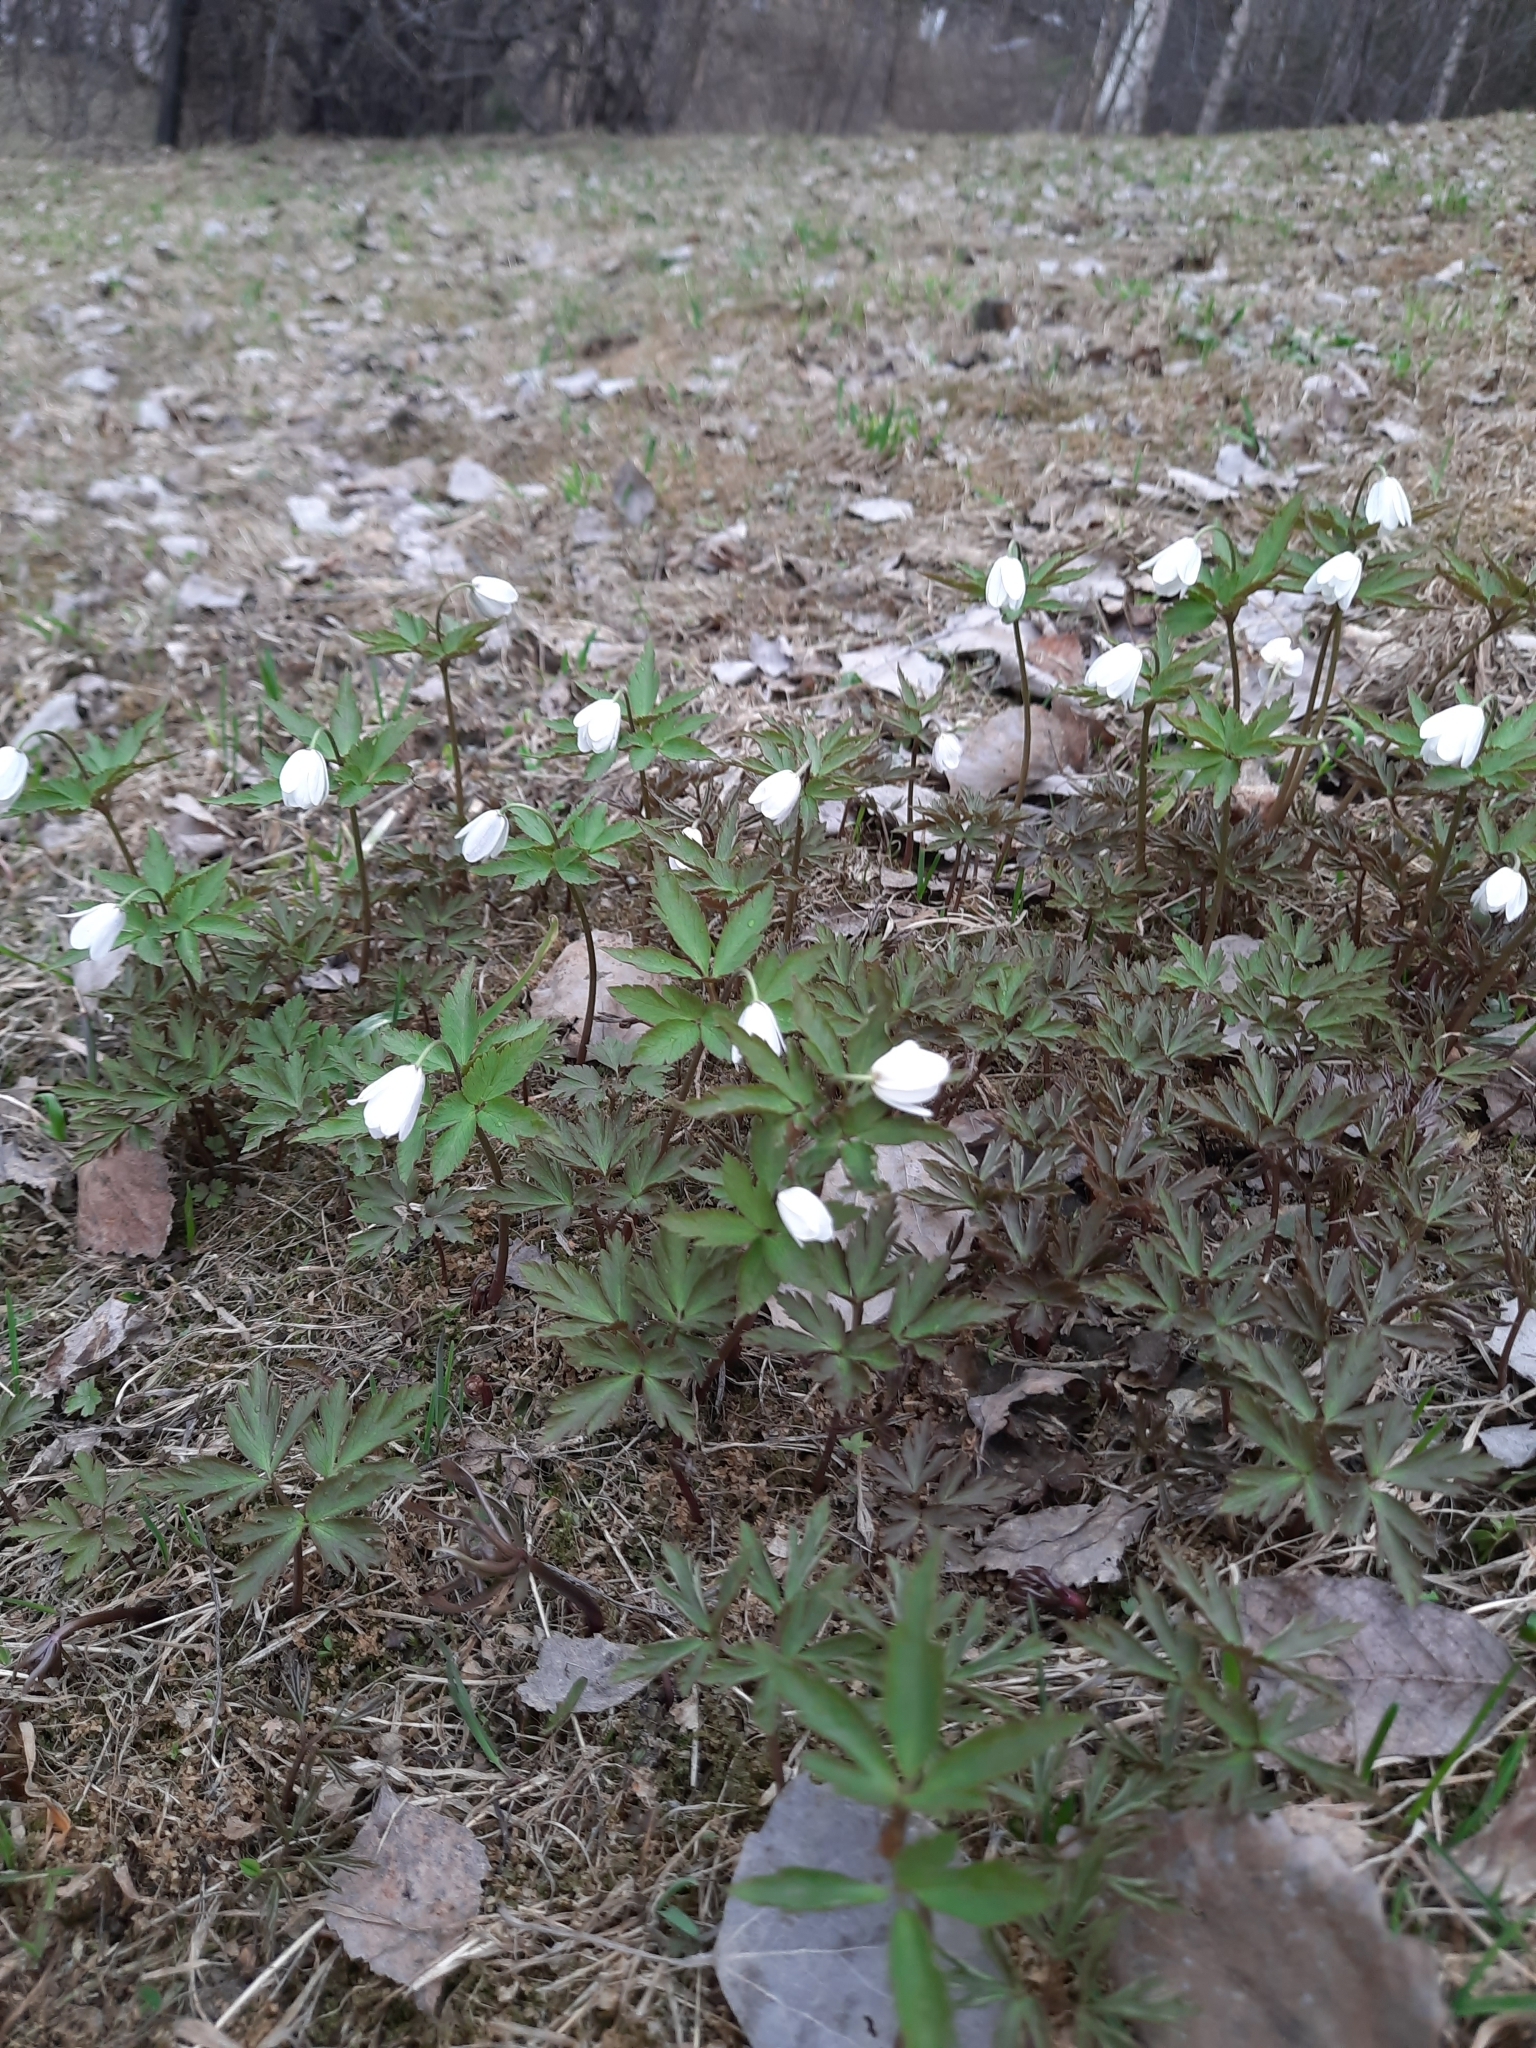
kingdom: Plantae
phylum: Tracheophyta
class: Magnoliopsida
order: Ranunculales
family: Ranunculaceae
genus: Anemone
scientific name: Anemone altaica
